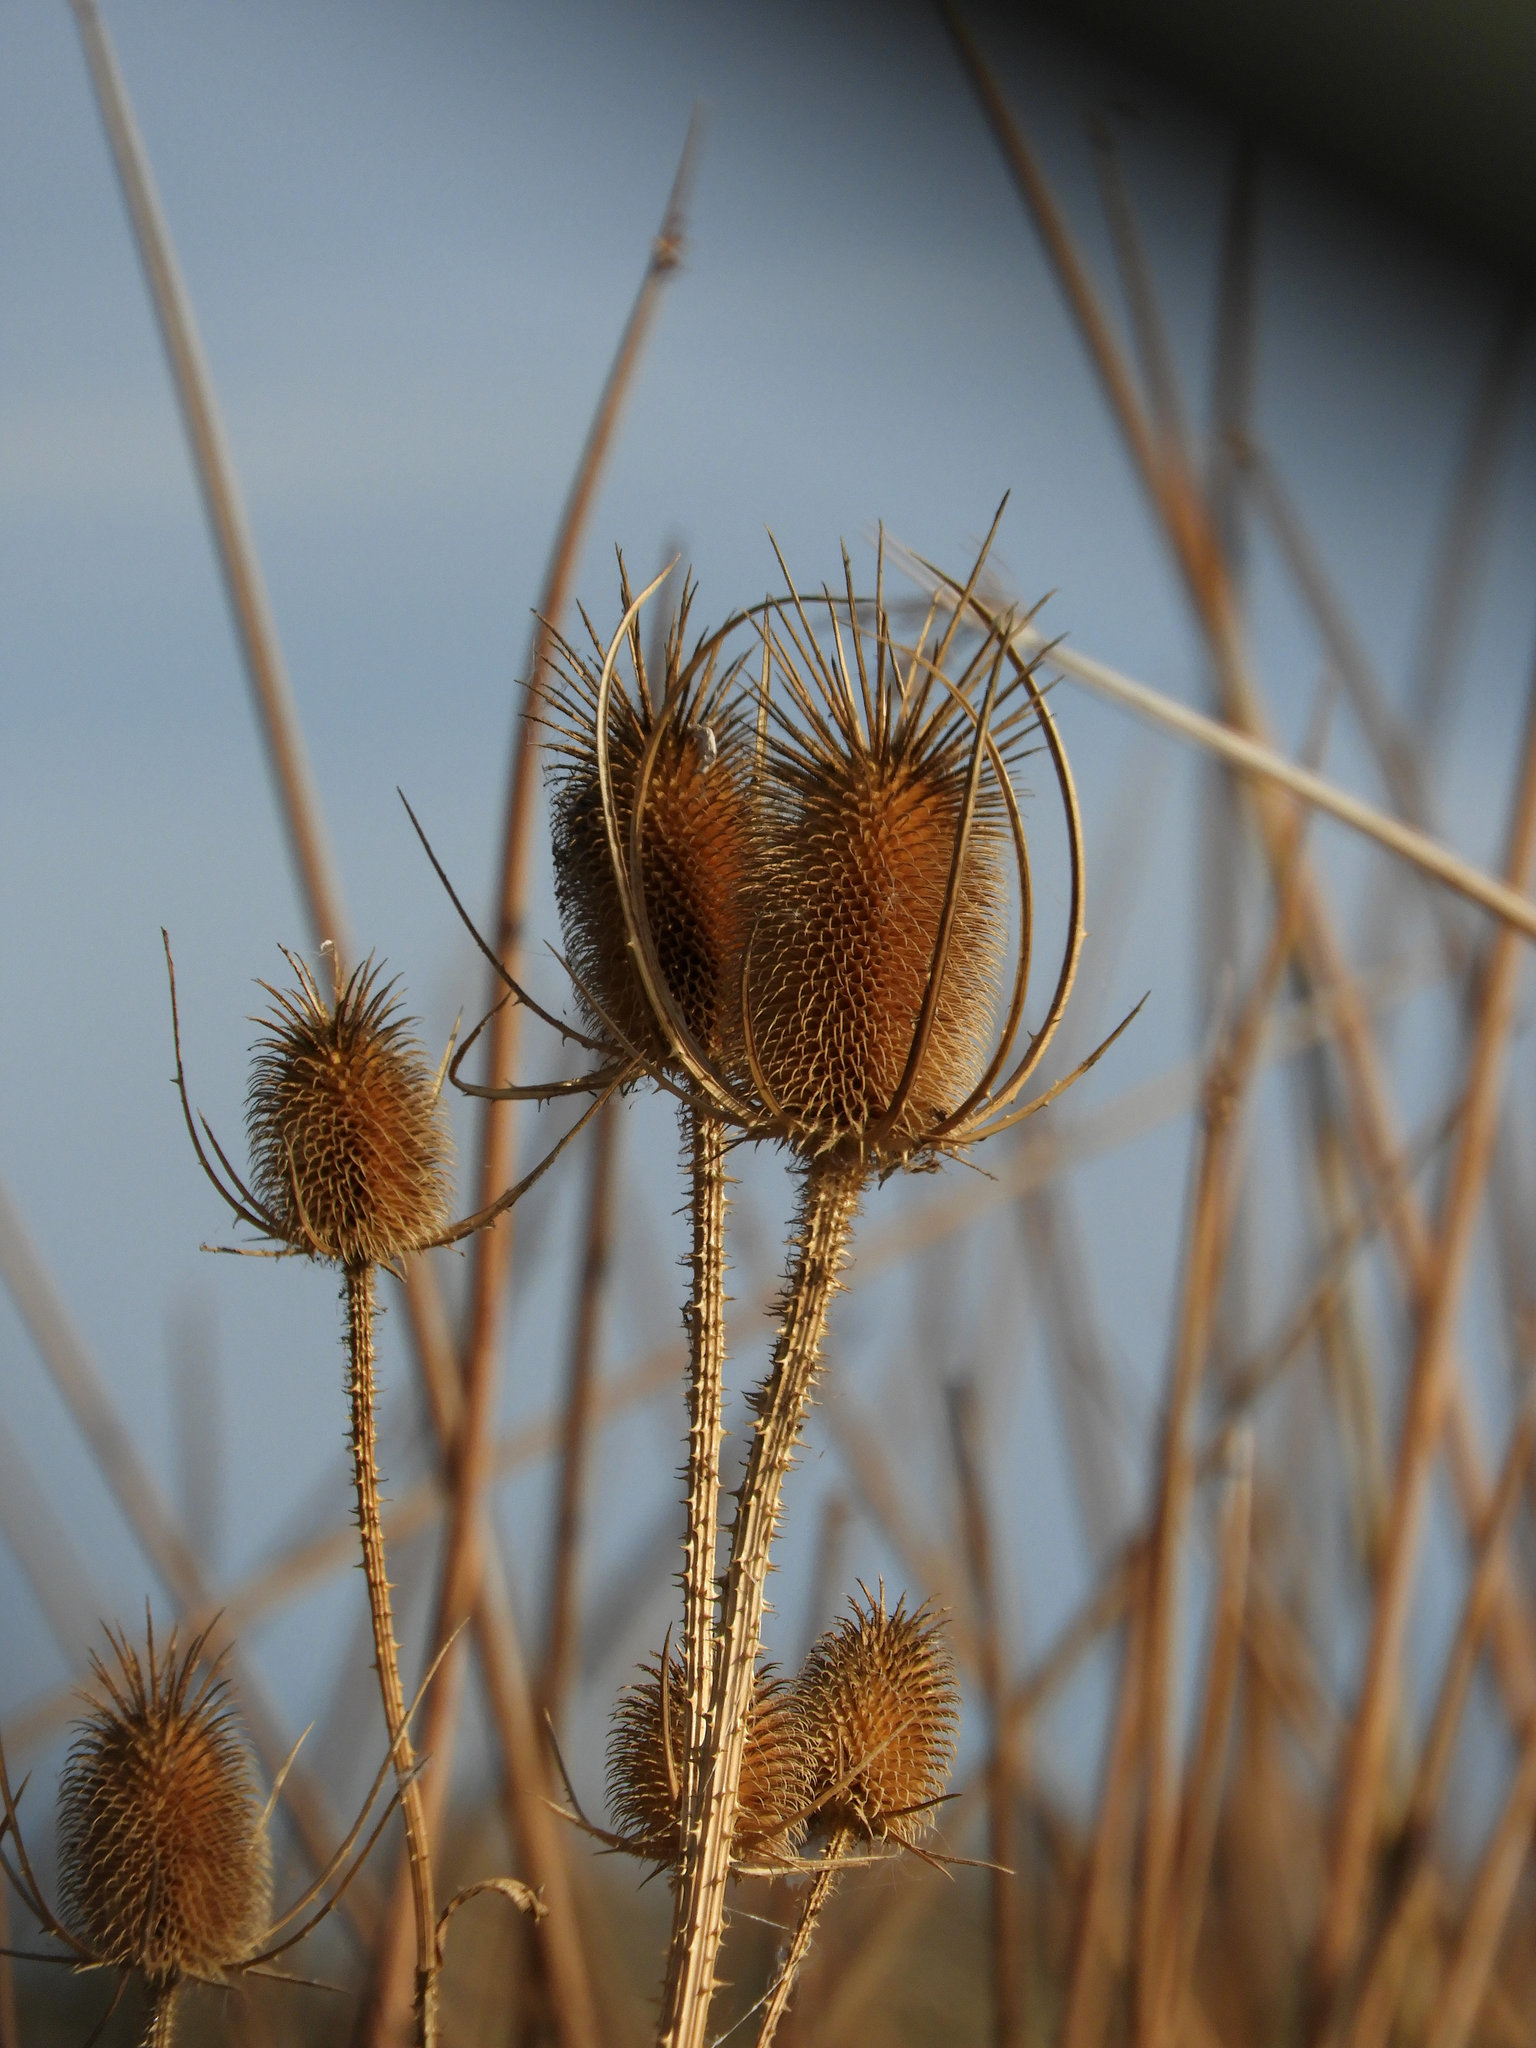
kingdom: Plantae
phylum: Tracheophyta
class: Magnoliopsida
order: Dipsacales
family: Caprifoliaceae
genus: Dipsacus
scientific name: Dipsacus fullonum
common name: Teasel
